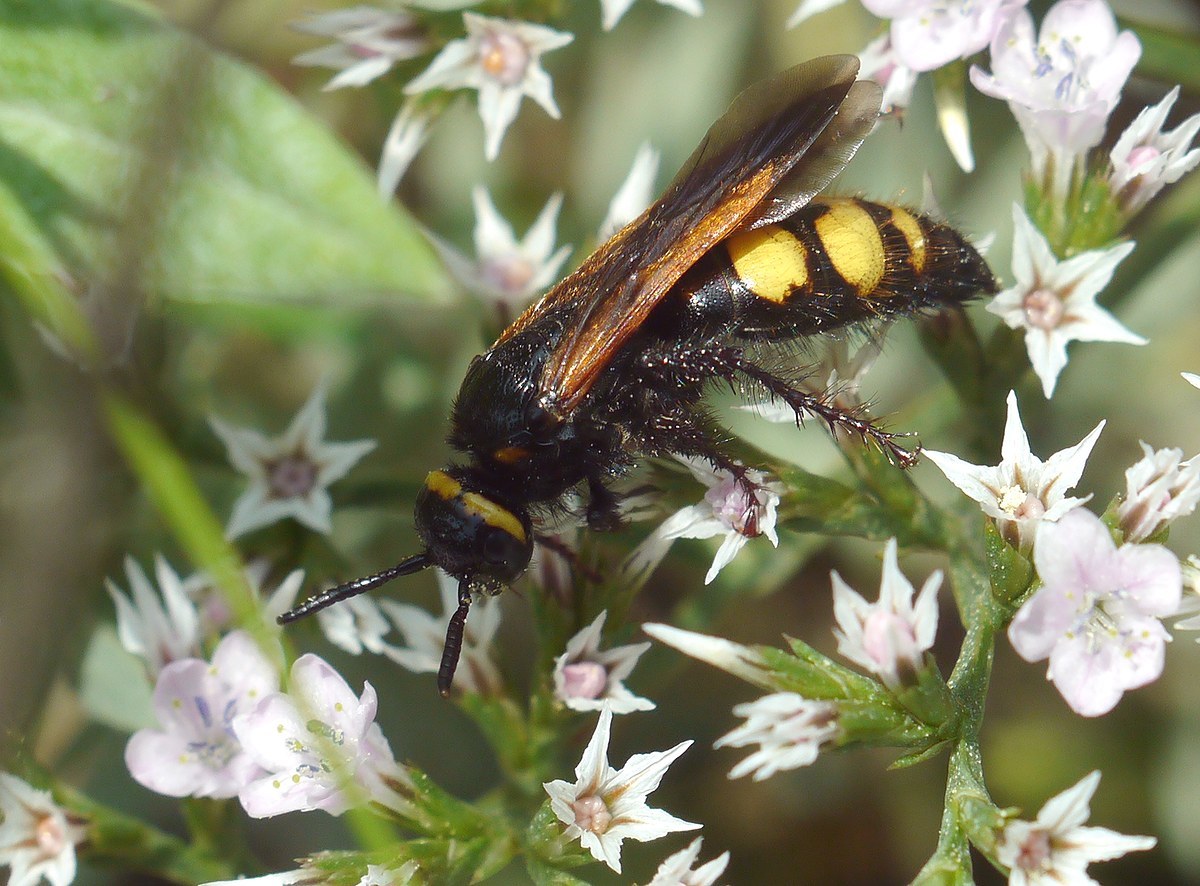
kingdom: Animalia
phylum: Arthropoda
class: Insecta
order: Hymenoptera
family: Scoliidae
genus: Scolia
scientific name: Scolia fuciformis
